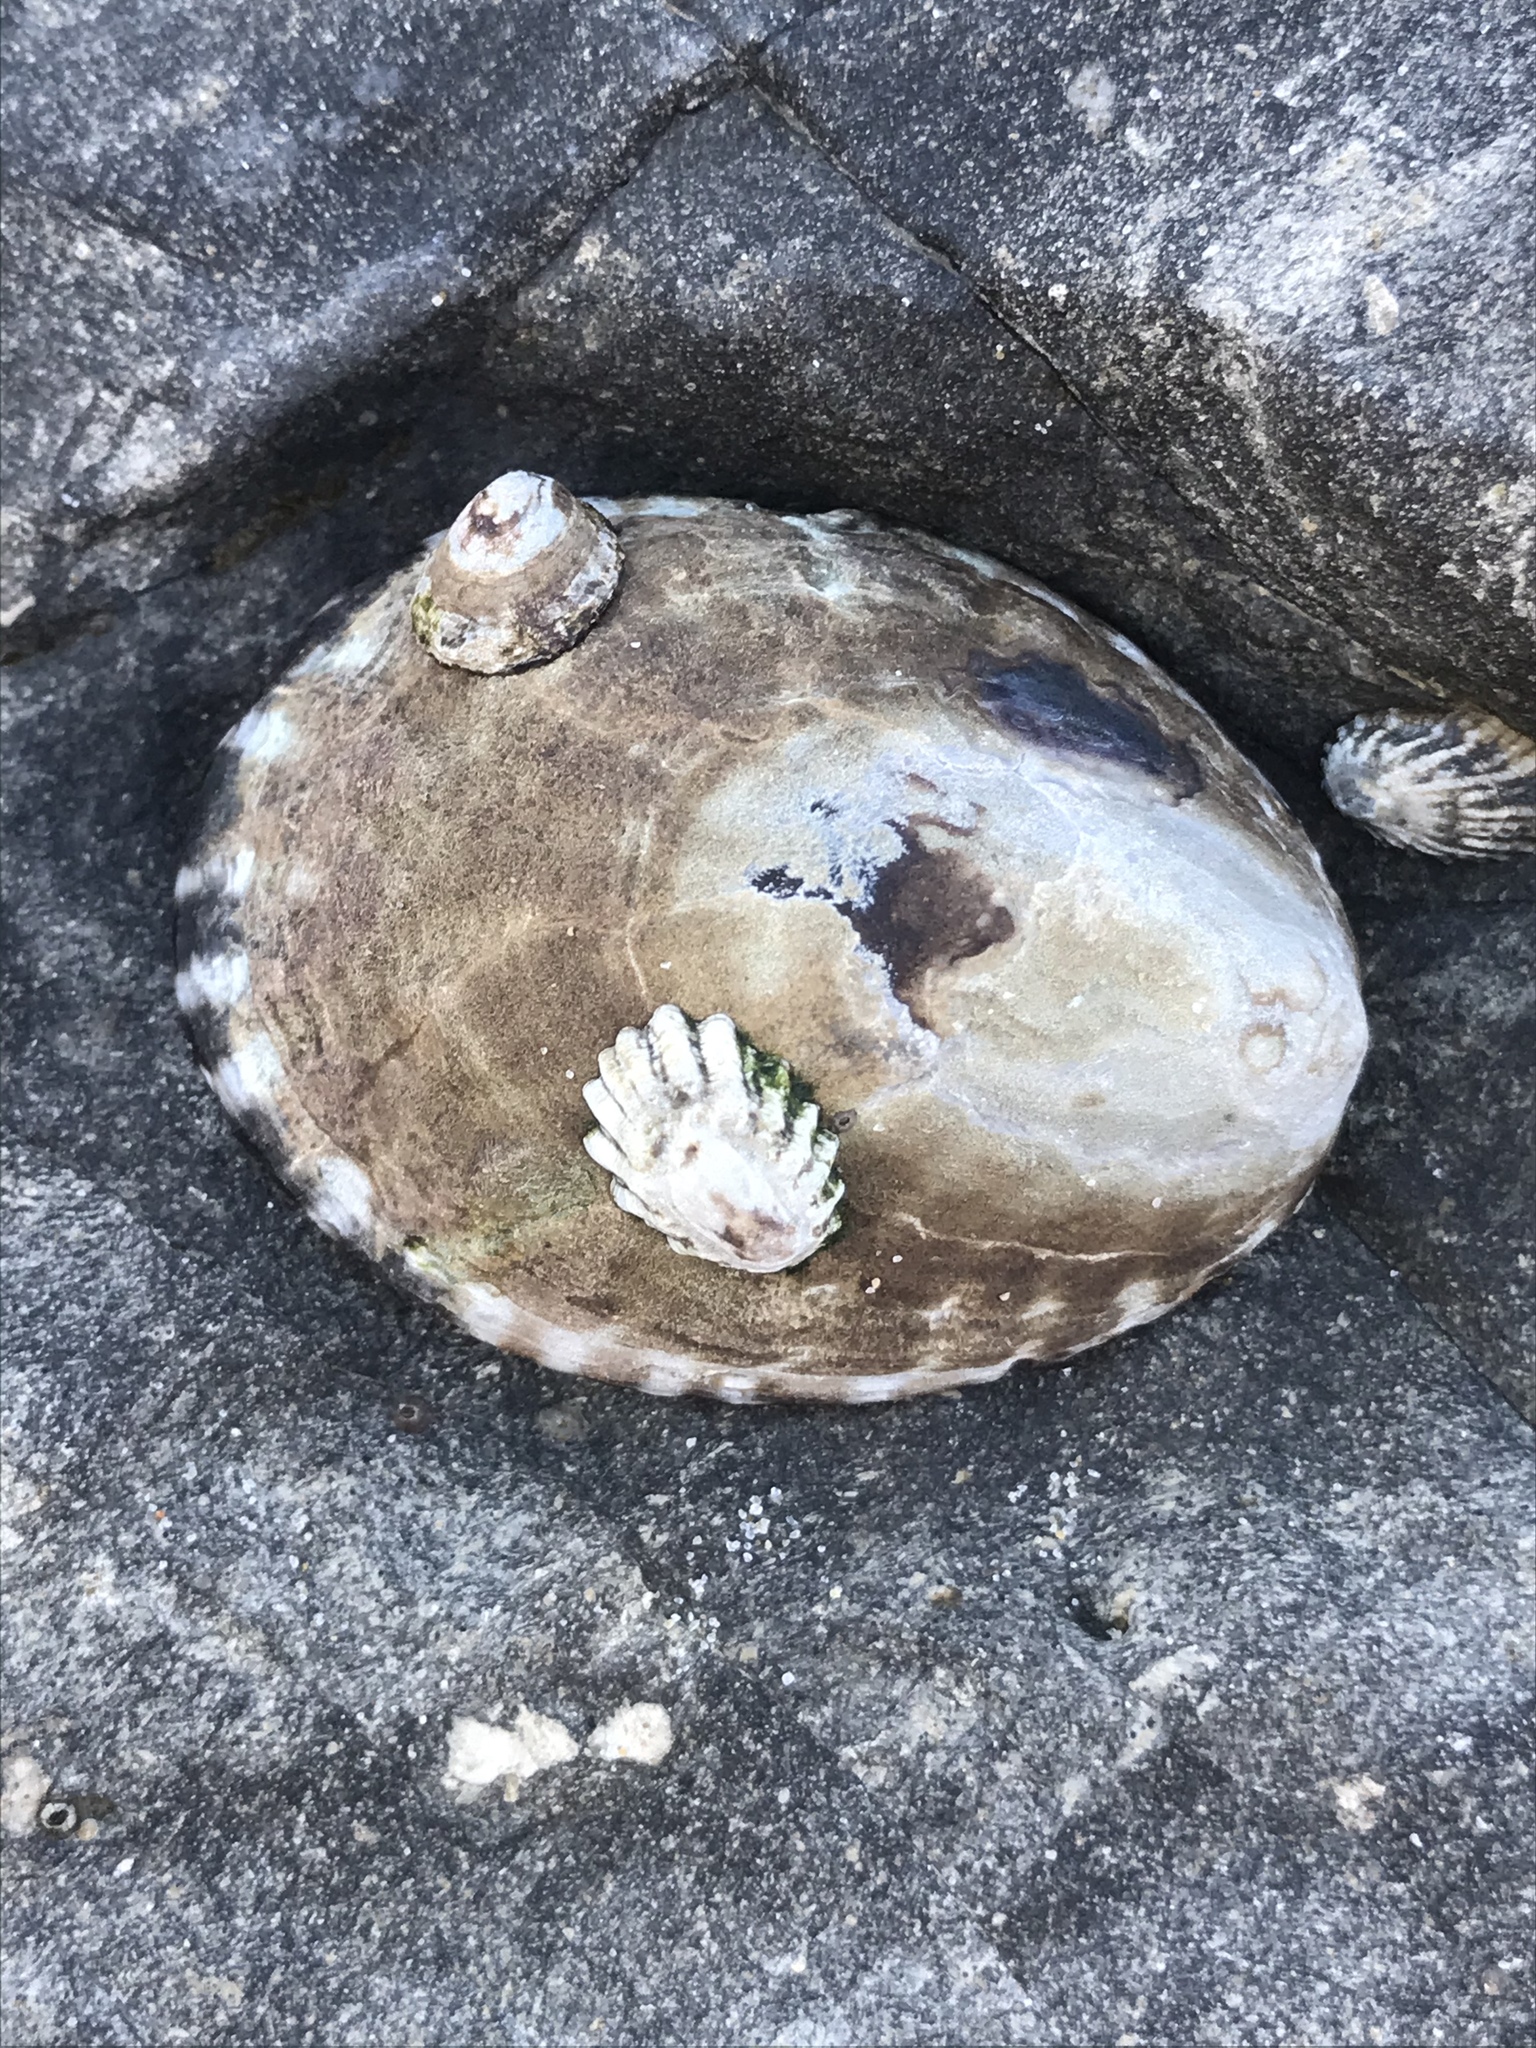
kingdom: Animalia
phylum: Mollusca
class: Gastropoda
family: Lottiidae
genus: Lottia
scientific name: Lottia gigantea
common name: Owl limpet
